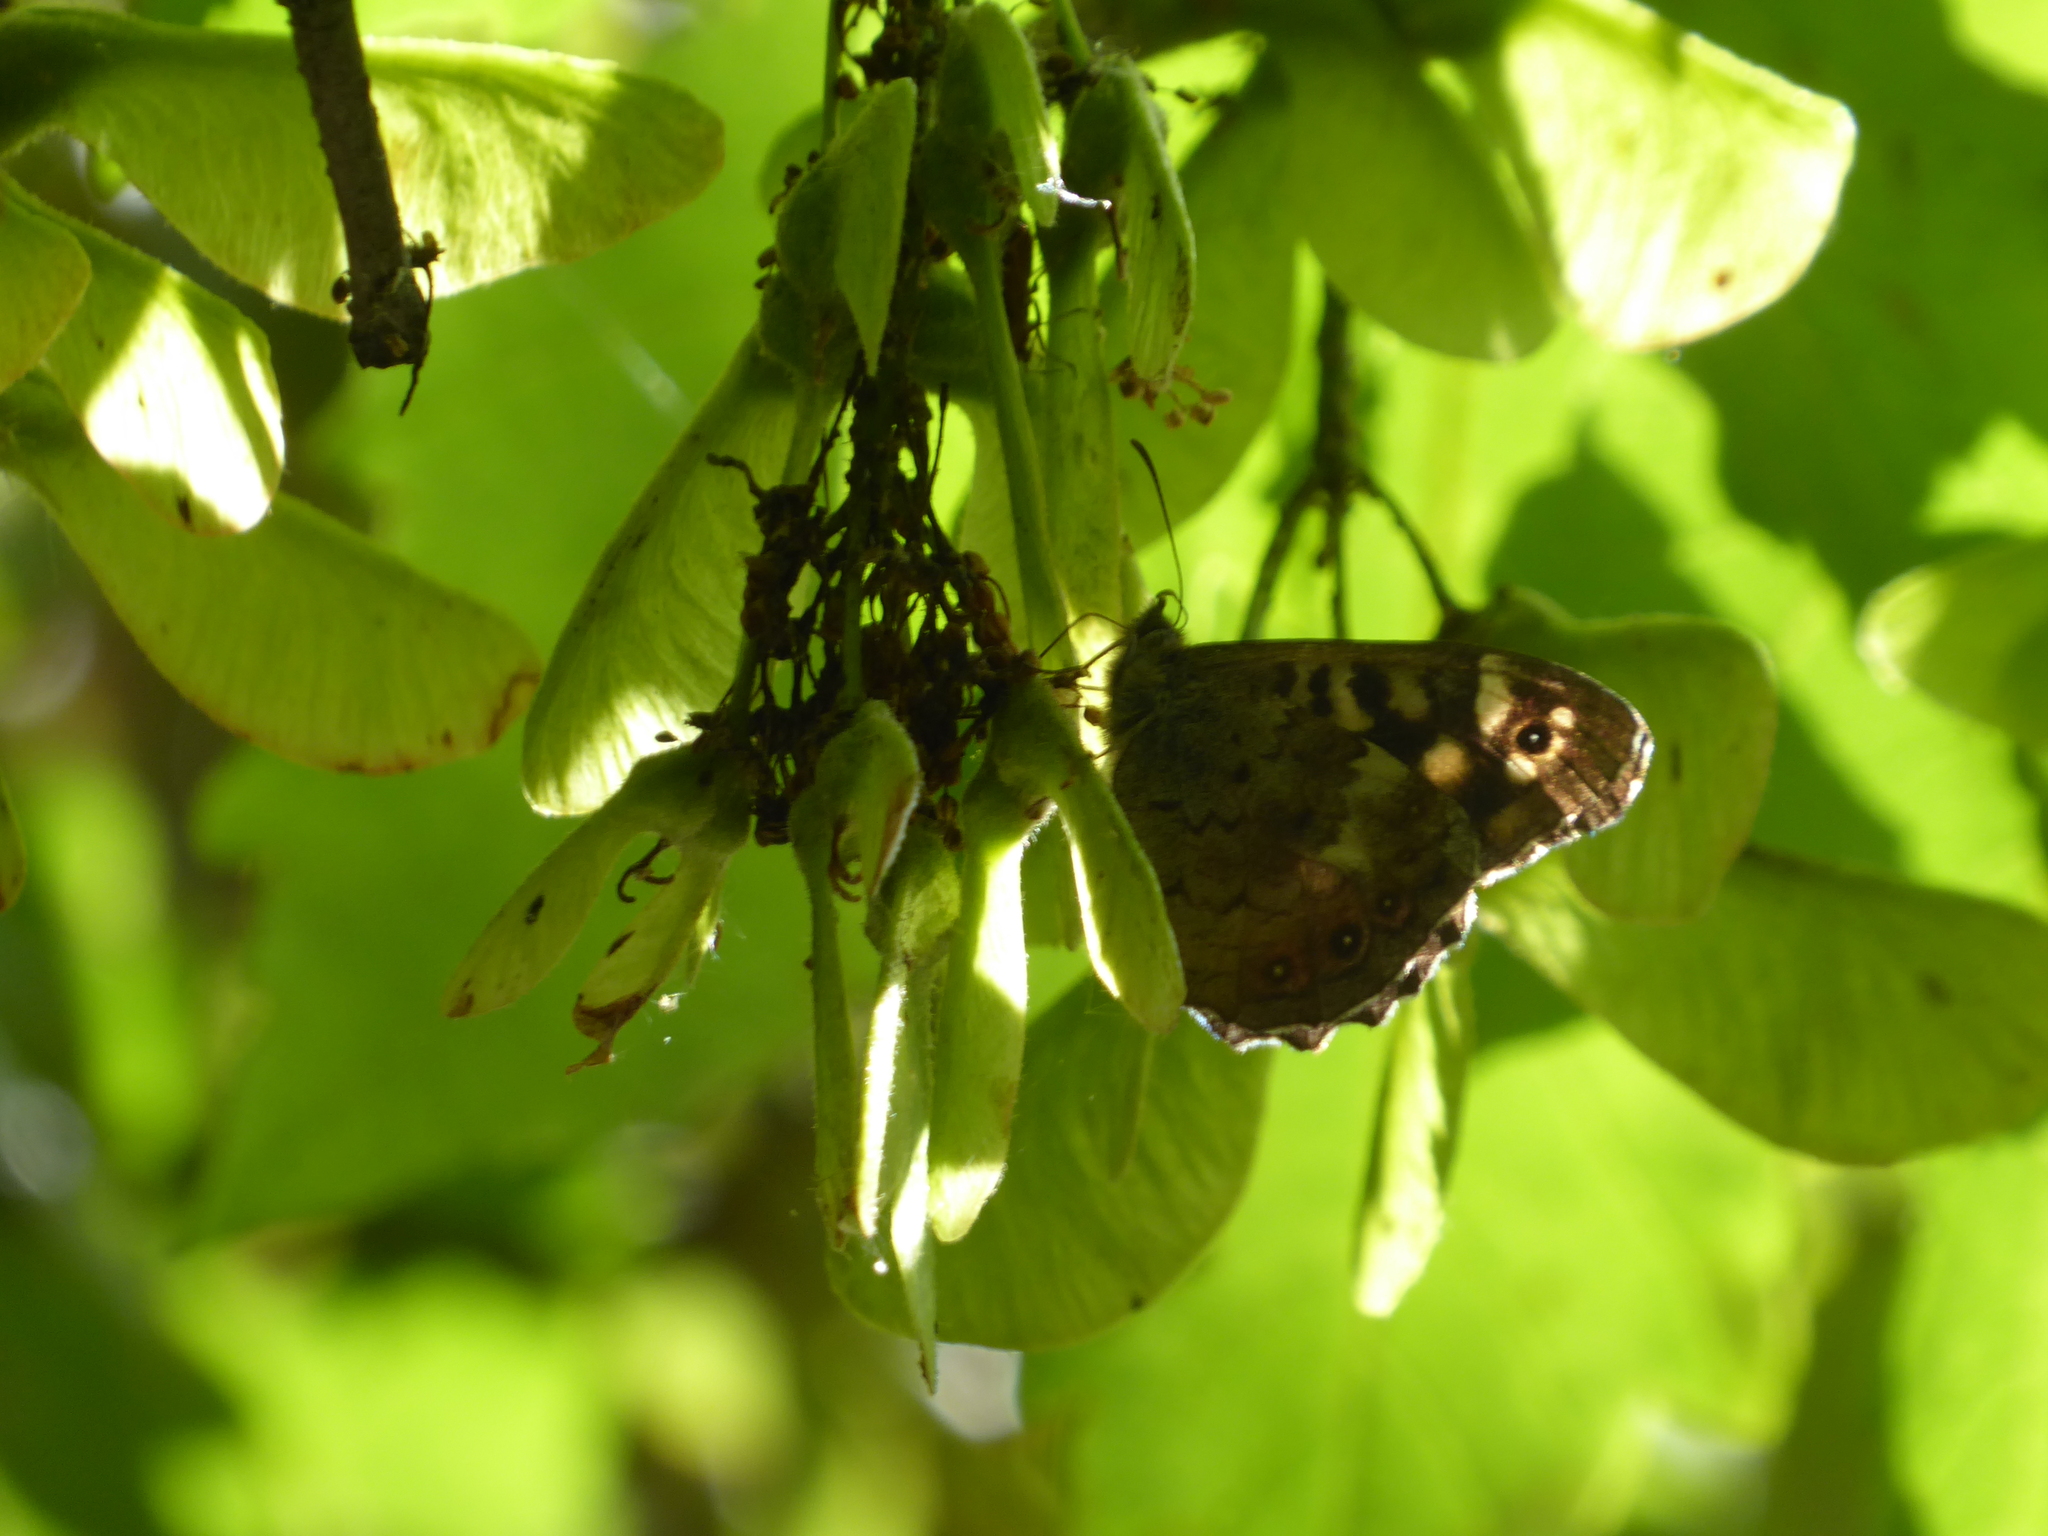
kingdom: Animalia
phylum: Arthropoda
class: Insecta
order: Lepidoptera
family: Nymphalidae
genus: Pararge
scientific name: Pararge aegeria
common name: Speckled wood
